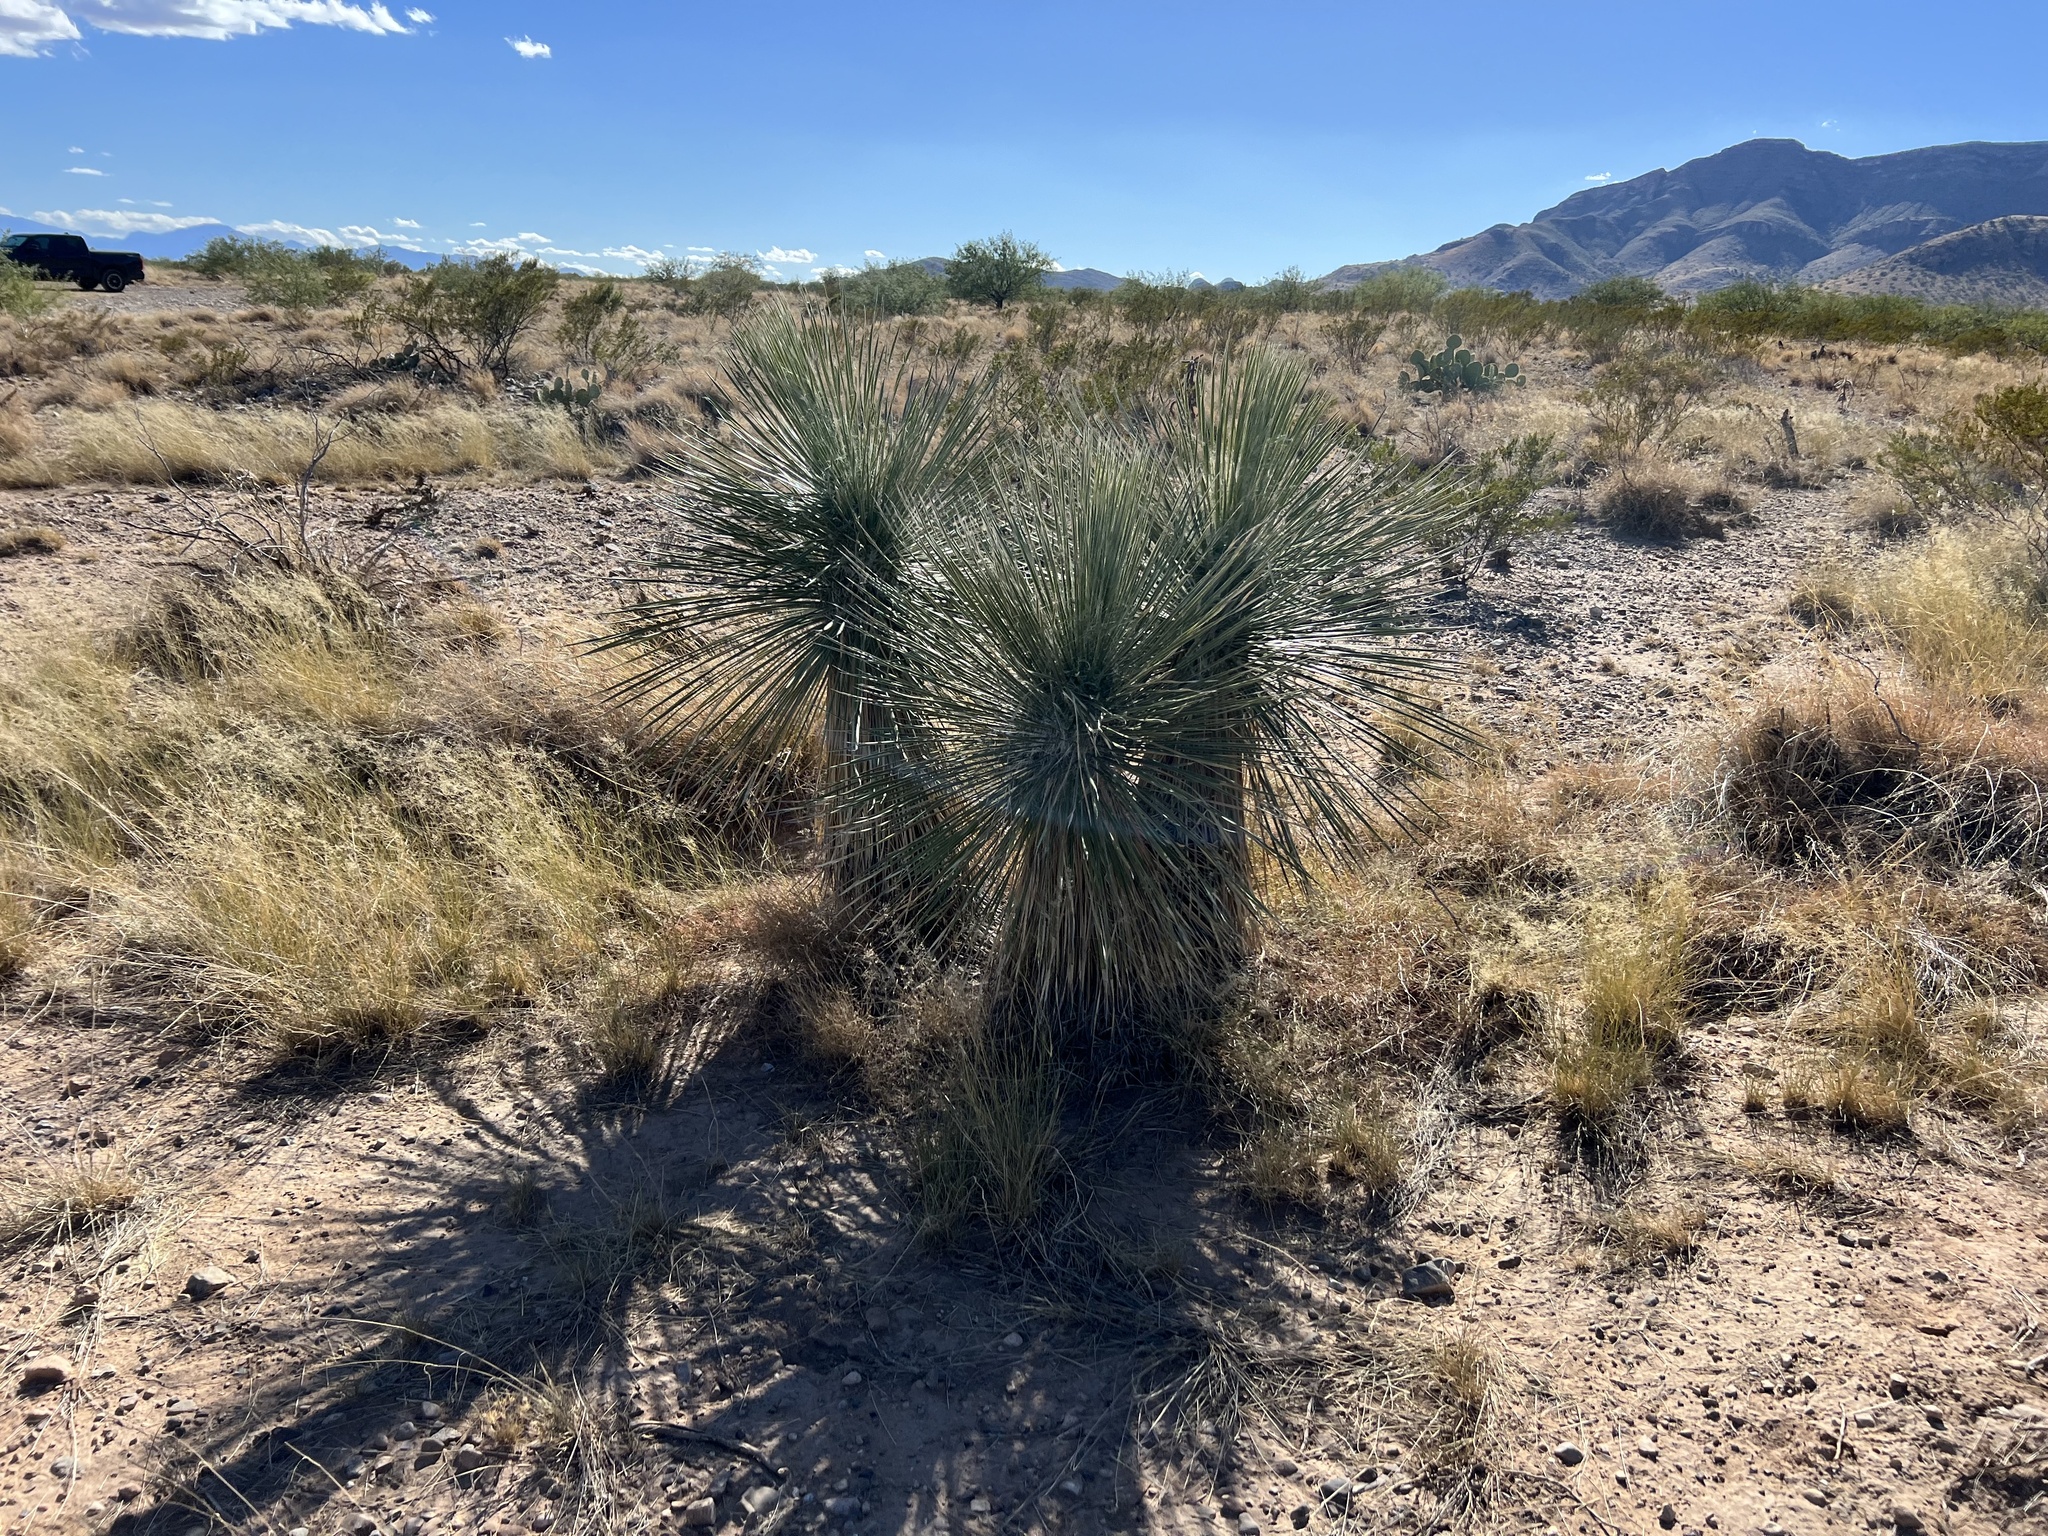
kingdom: Plantae
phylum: Tracheophyta
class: Liliopsida
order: Asparagales
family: Asparagaceae
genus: Yucca
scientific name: Yucca elata
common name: Palmella
